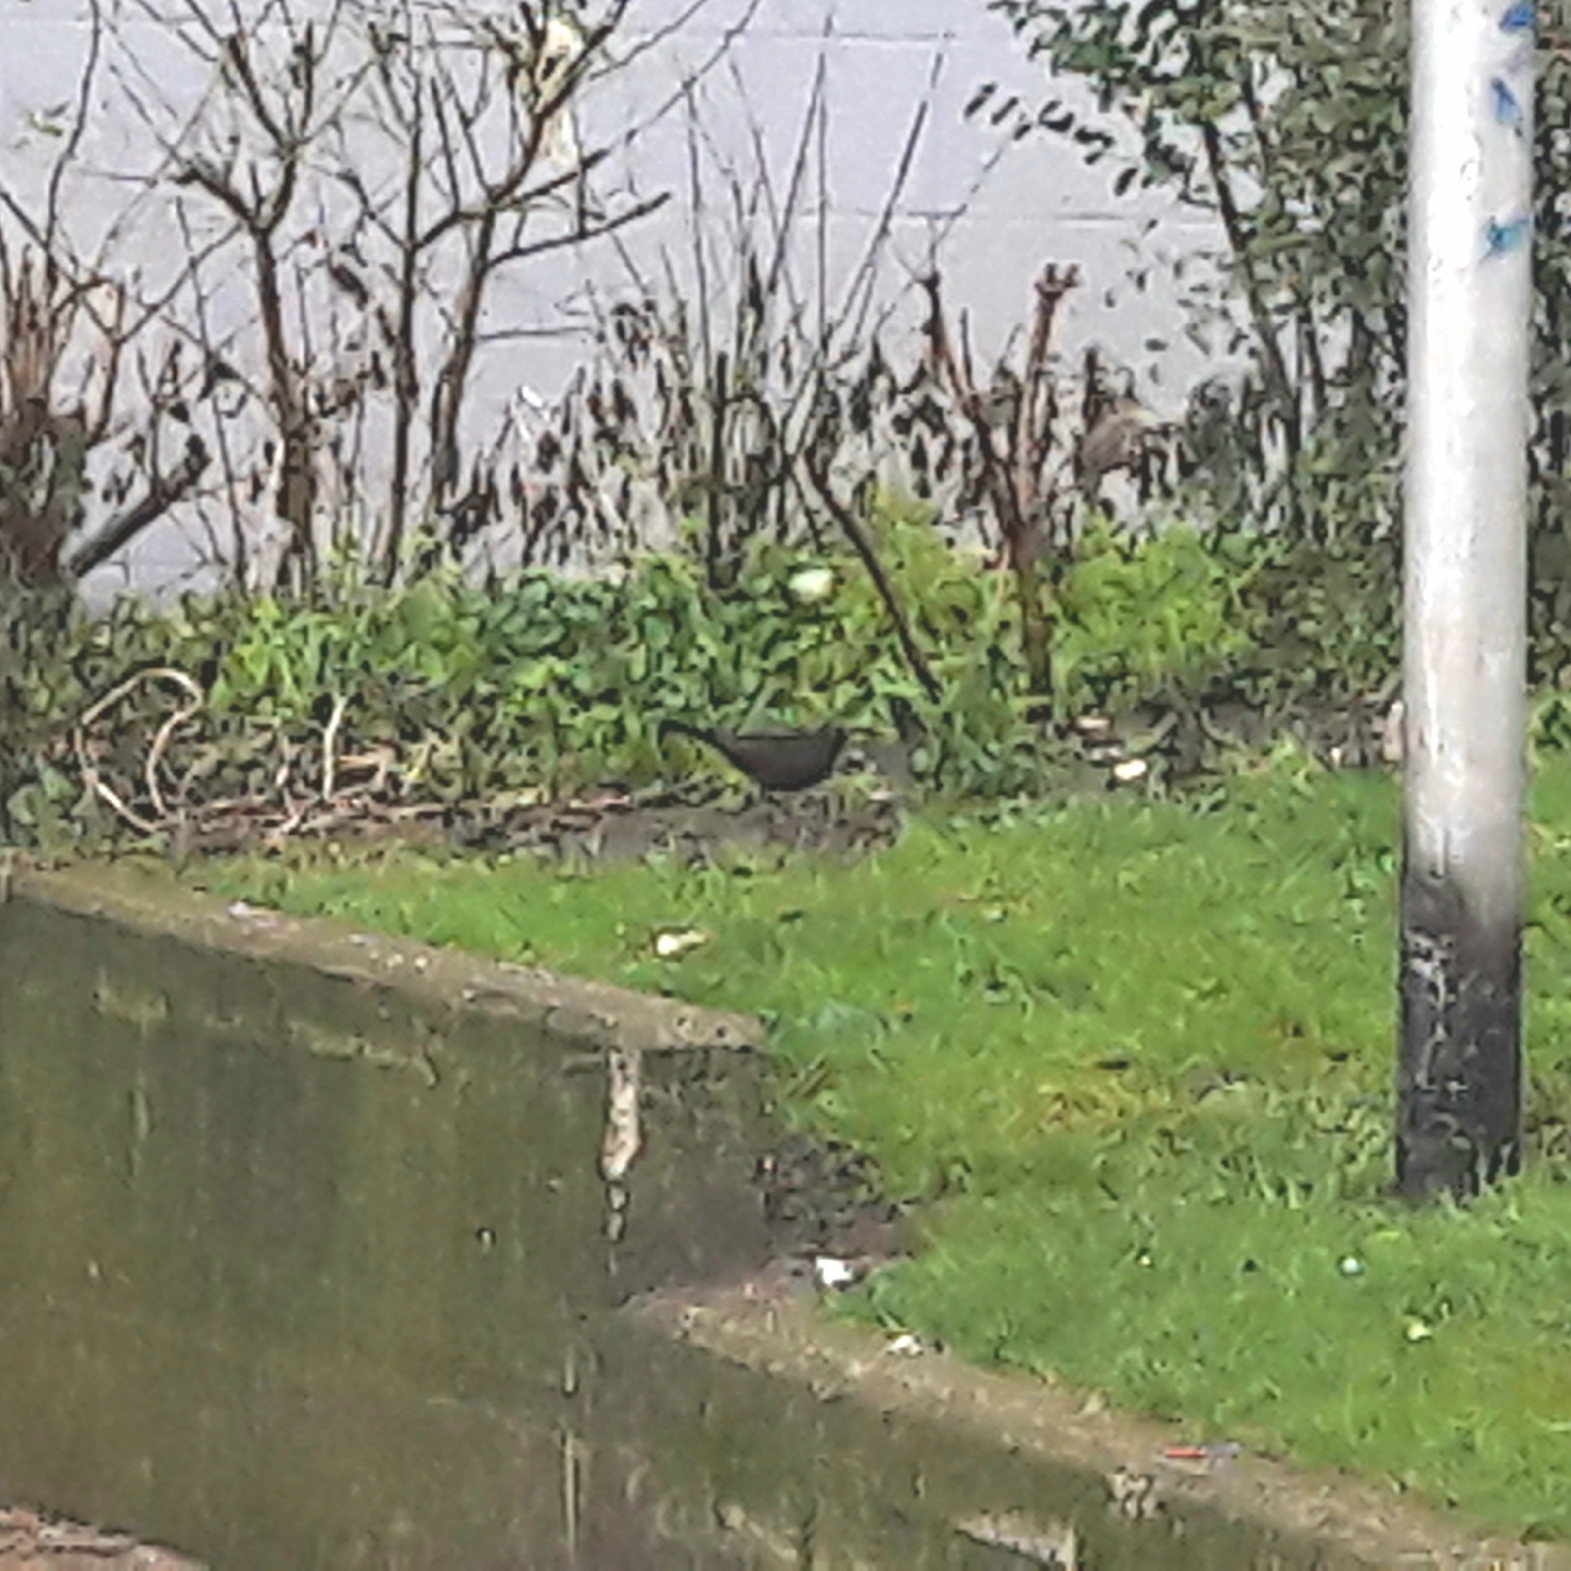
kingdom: Animalia
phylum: Chordata
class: Aves
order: Passeriformes
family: Turdidae
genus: Turdus
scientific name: Turdus merula
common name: Common blackbird
